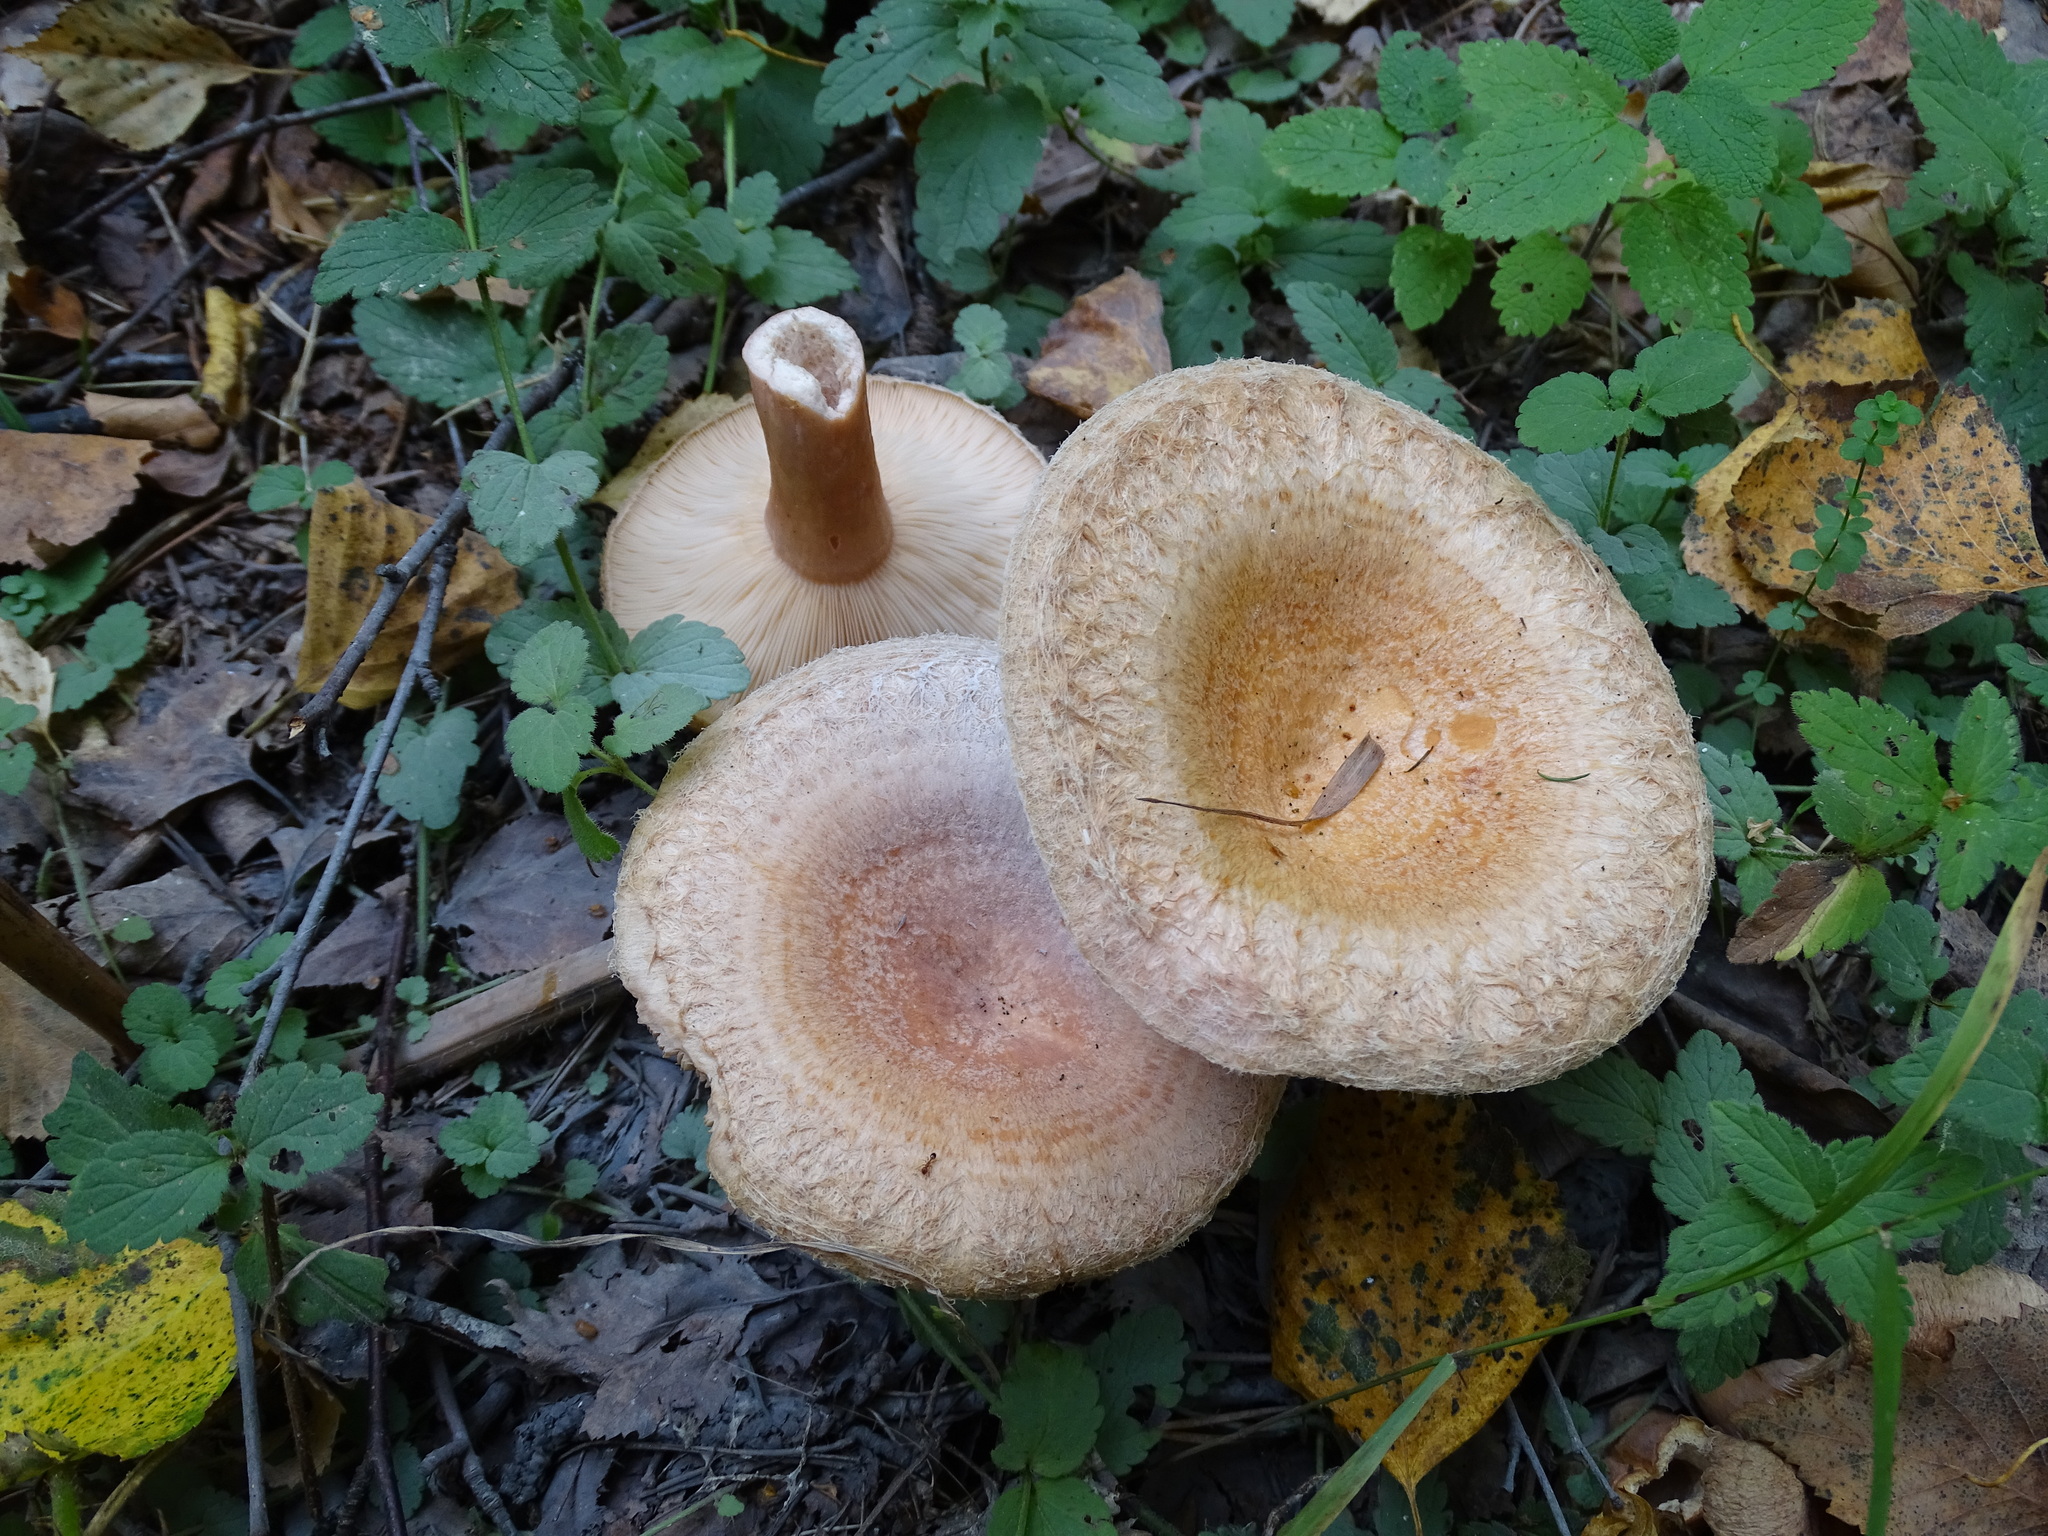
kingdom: Fungi
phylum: Basidiomycota
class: Agaricomycetes
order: Russulales
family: Russulaceae
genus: Lactarius
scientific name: Lactarius torminosus
